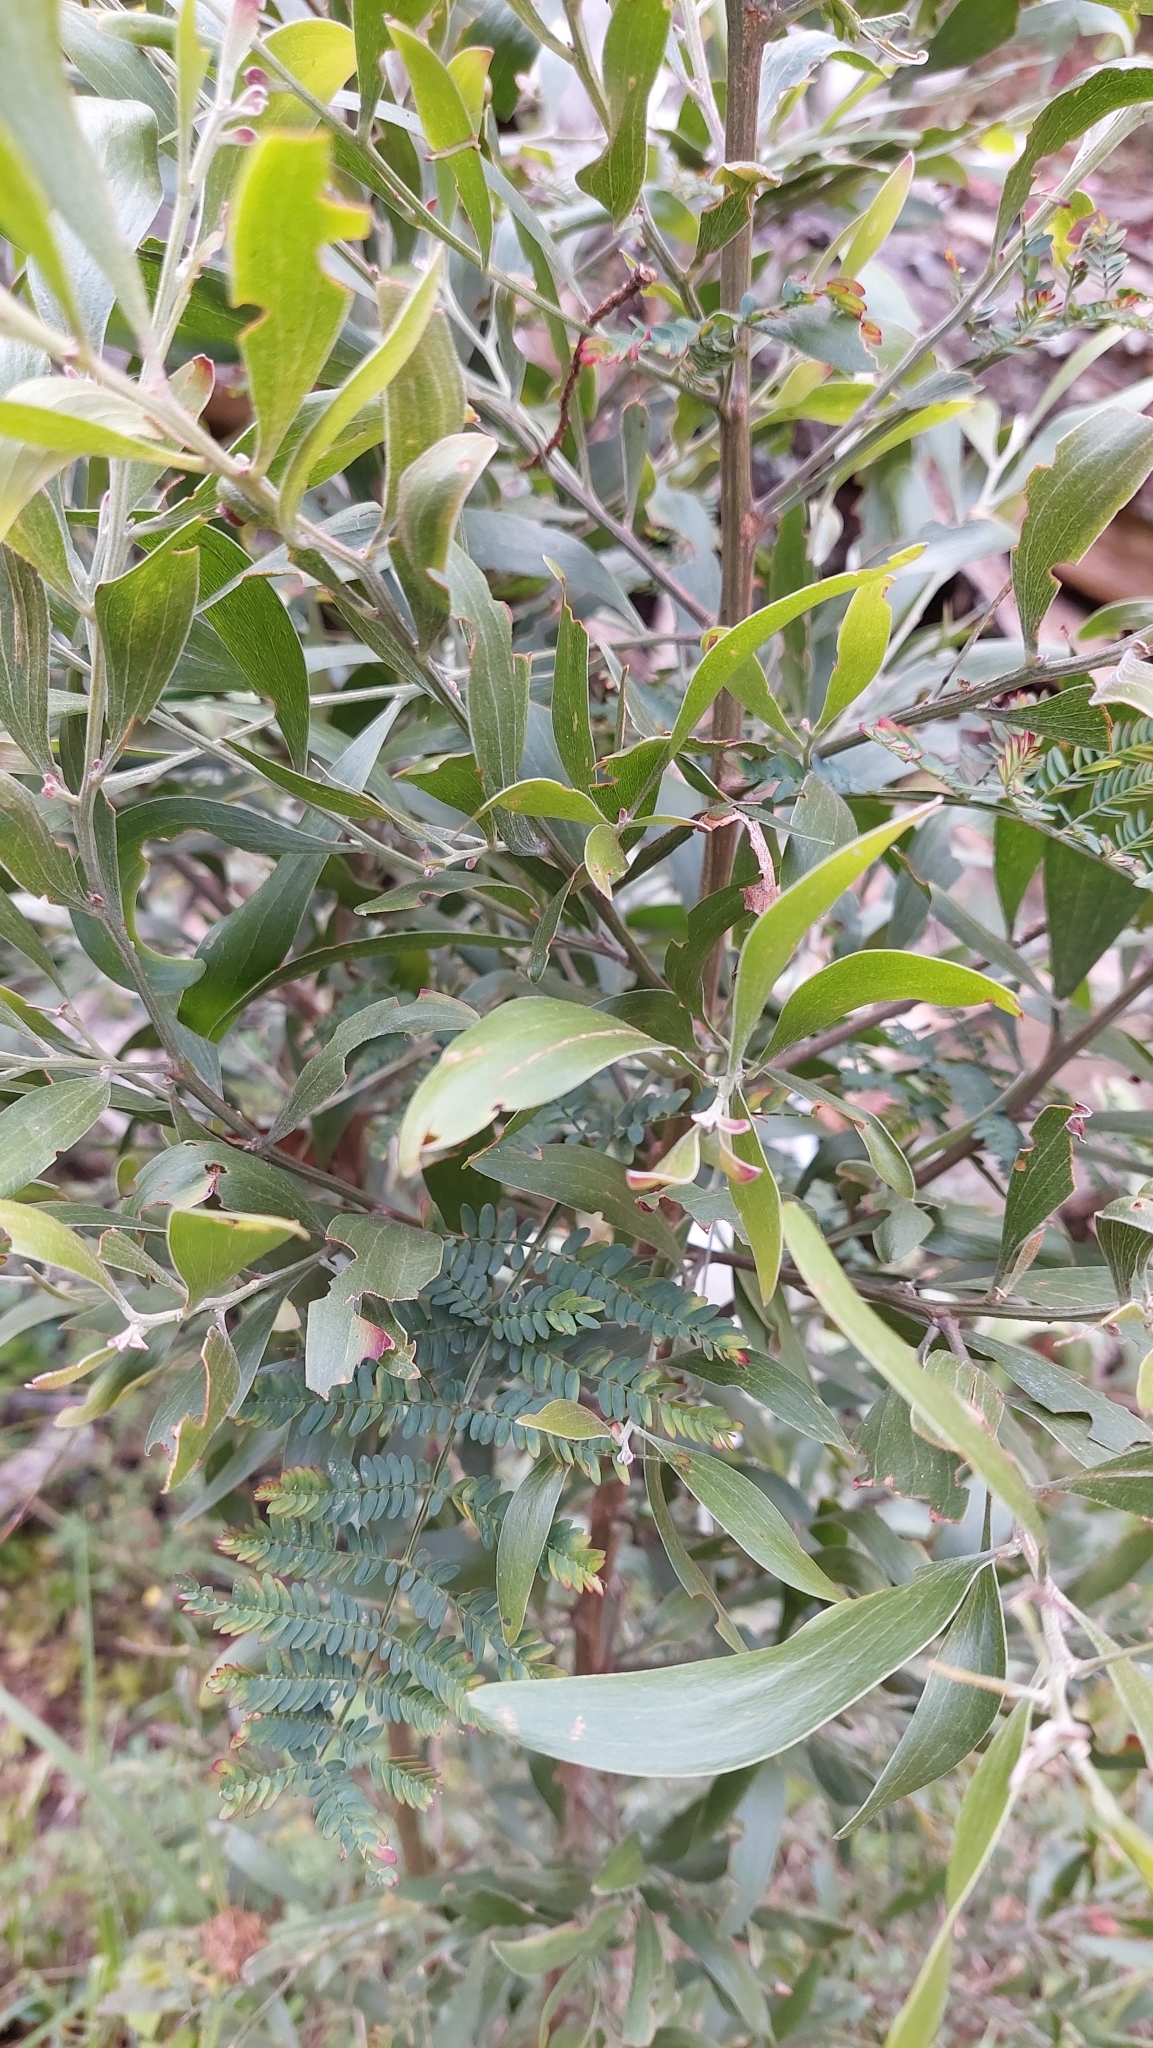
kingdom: Plantae
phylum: Tracheophyta
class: Magnoliopsida
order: Fabales
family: Fabaceae
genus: Acacia
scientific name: Acacia melanoxylon
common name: Blackwood
